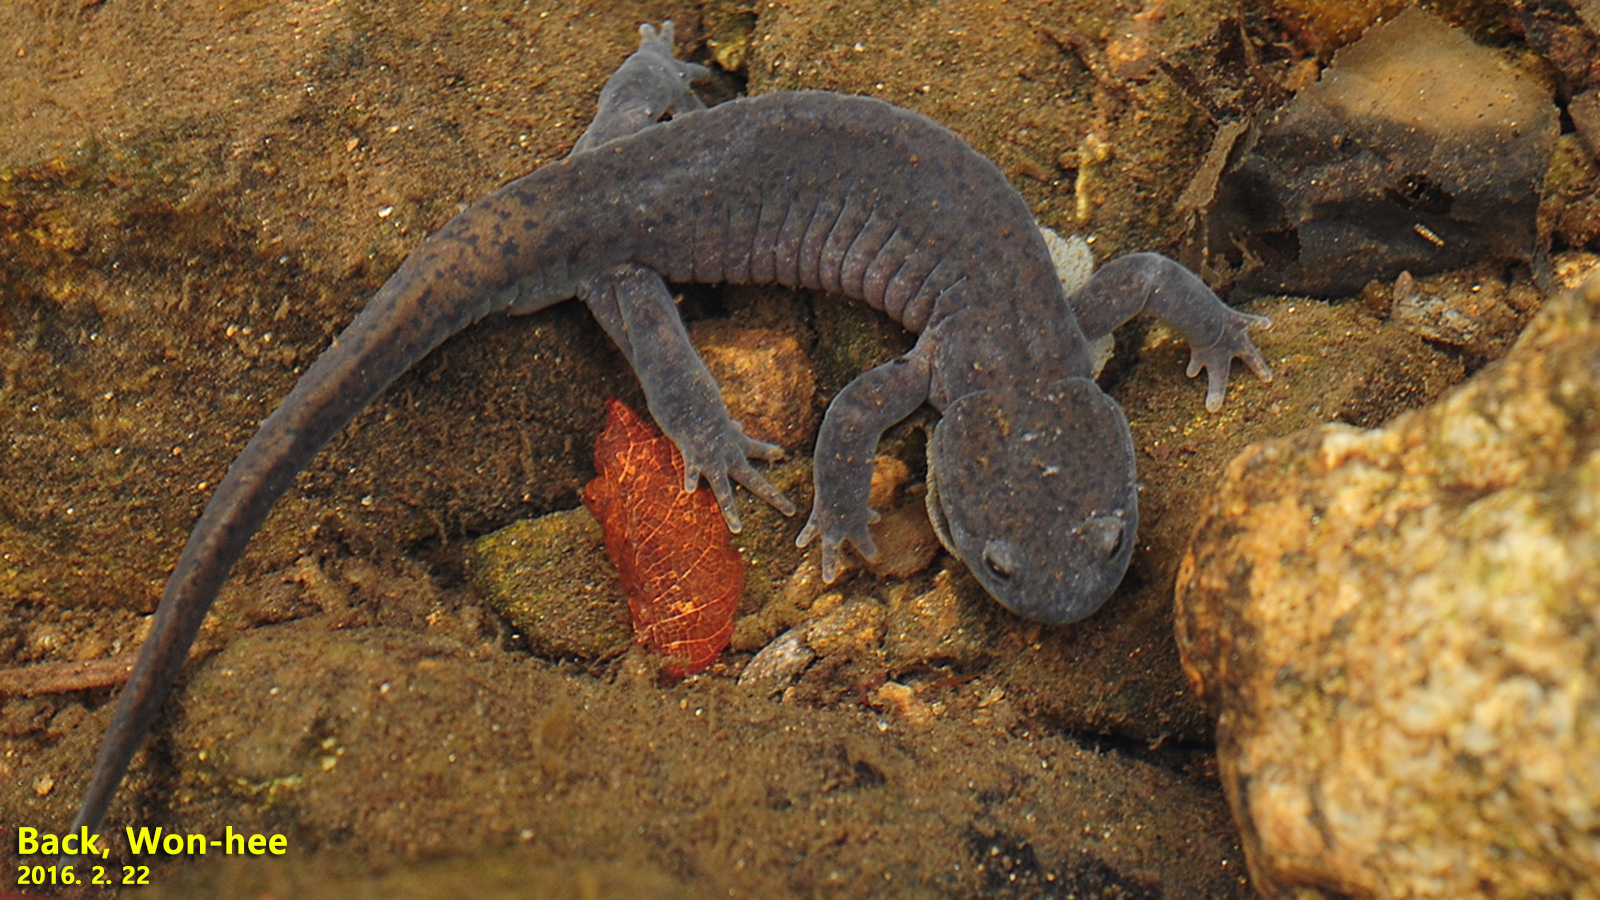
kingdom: Animalia
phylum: Chordata
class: Amphibia
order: Caudata
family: Hynobiidae
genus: Hynobius
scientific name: Hynobius leechii
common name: Gensan salamander
